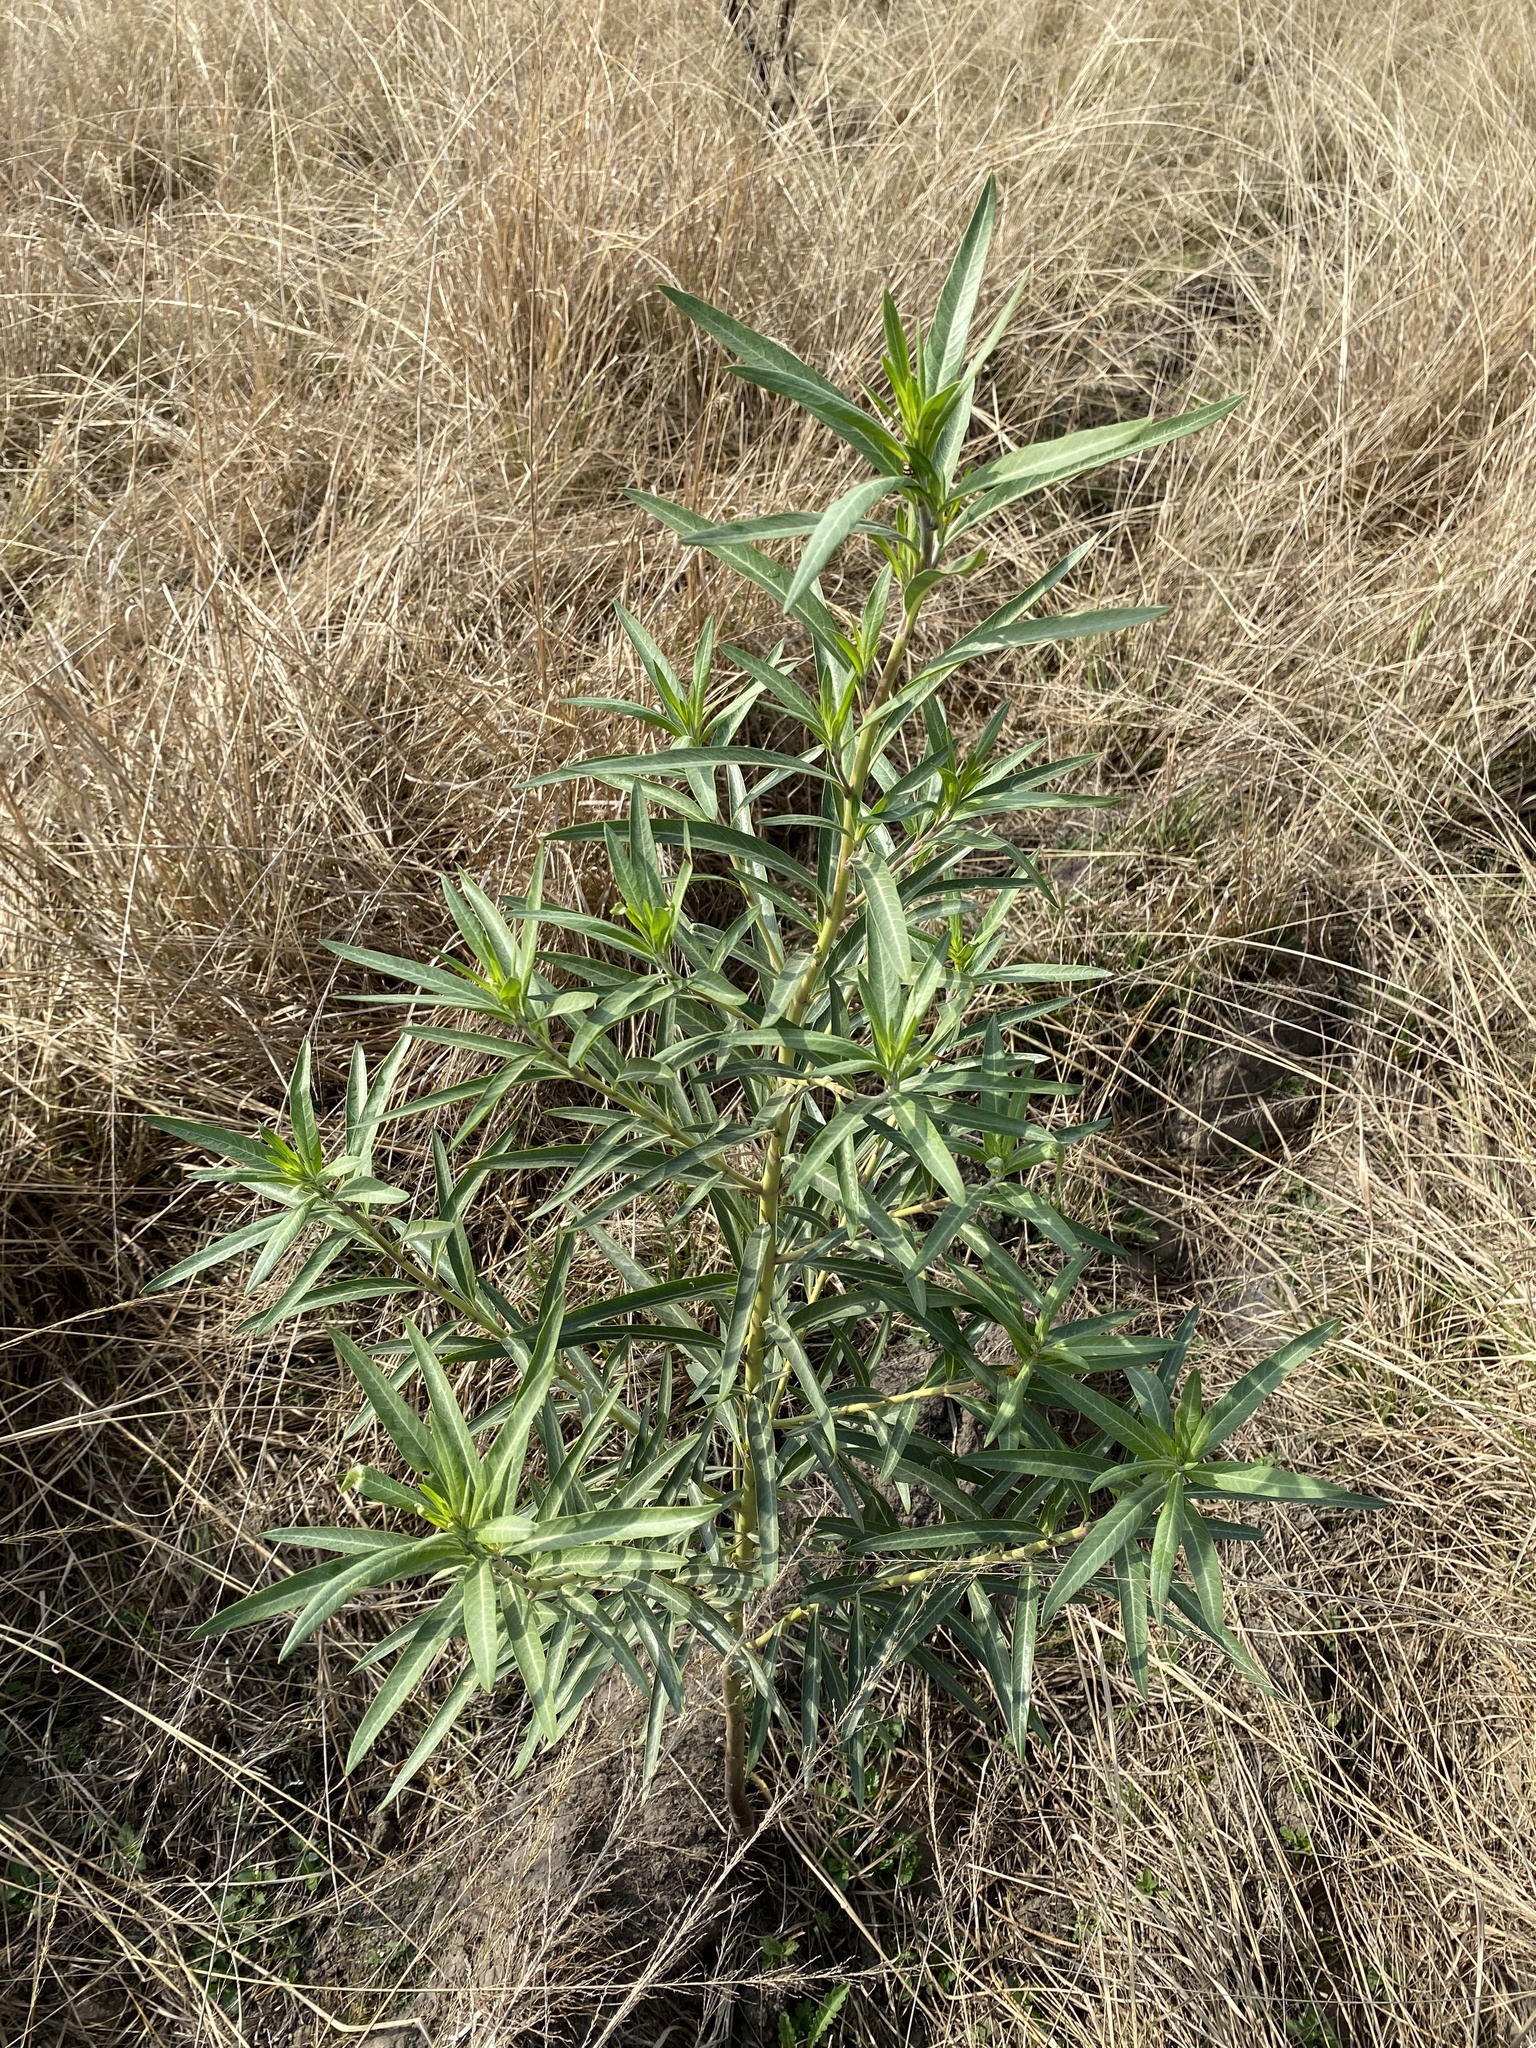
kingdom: Plantae
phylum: Tracheophyta
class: Magnoliopsida
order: Gentianales
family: Apocynaceae
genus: Gomphocarpus
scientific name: Gomphocarpus fruticosus
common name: Milkweed
